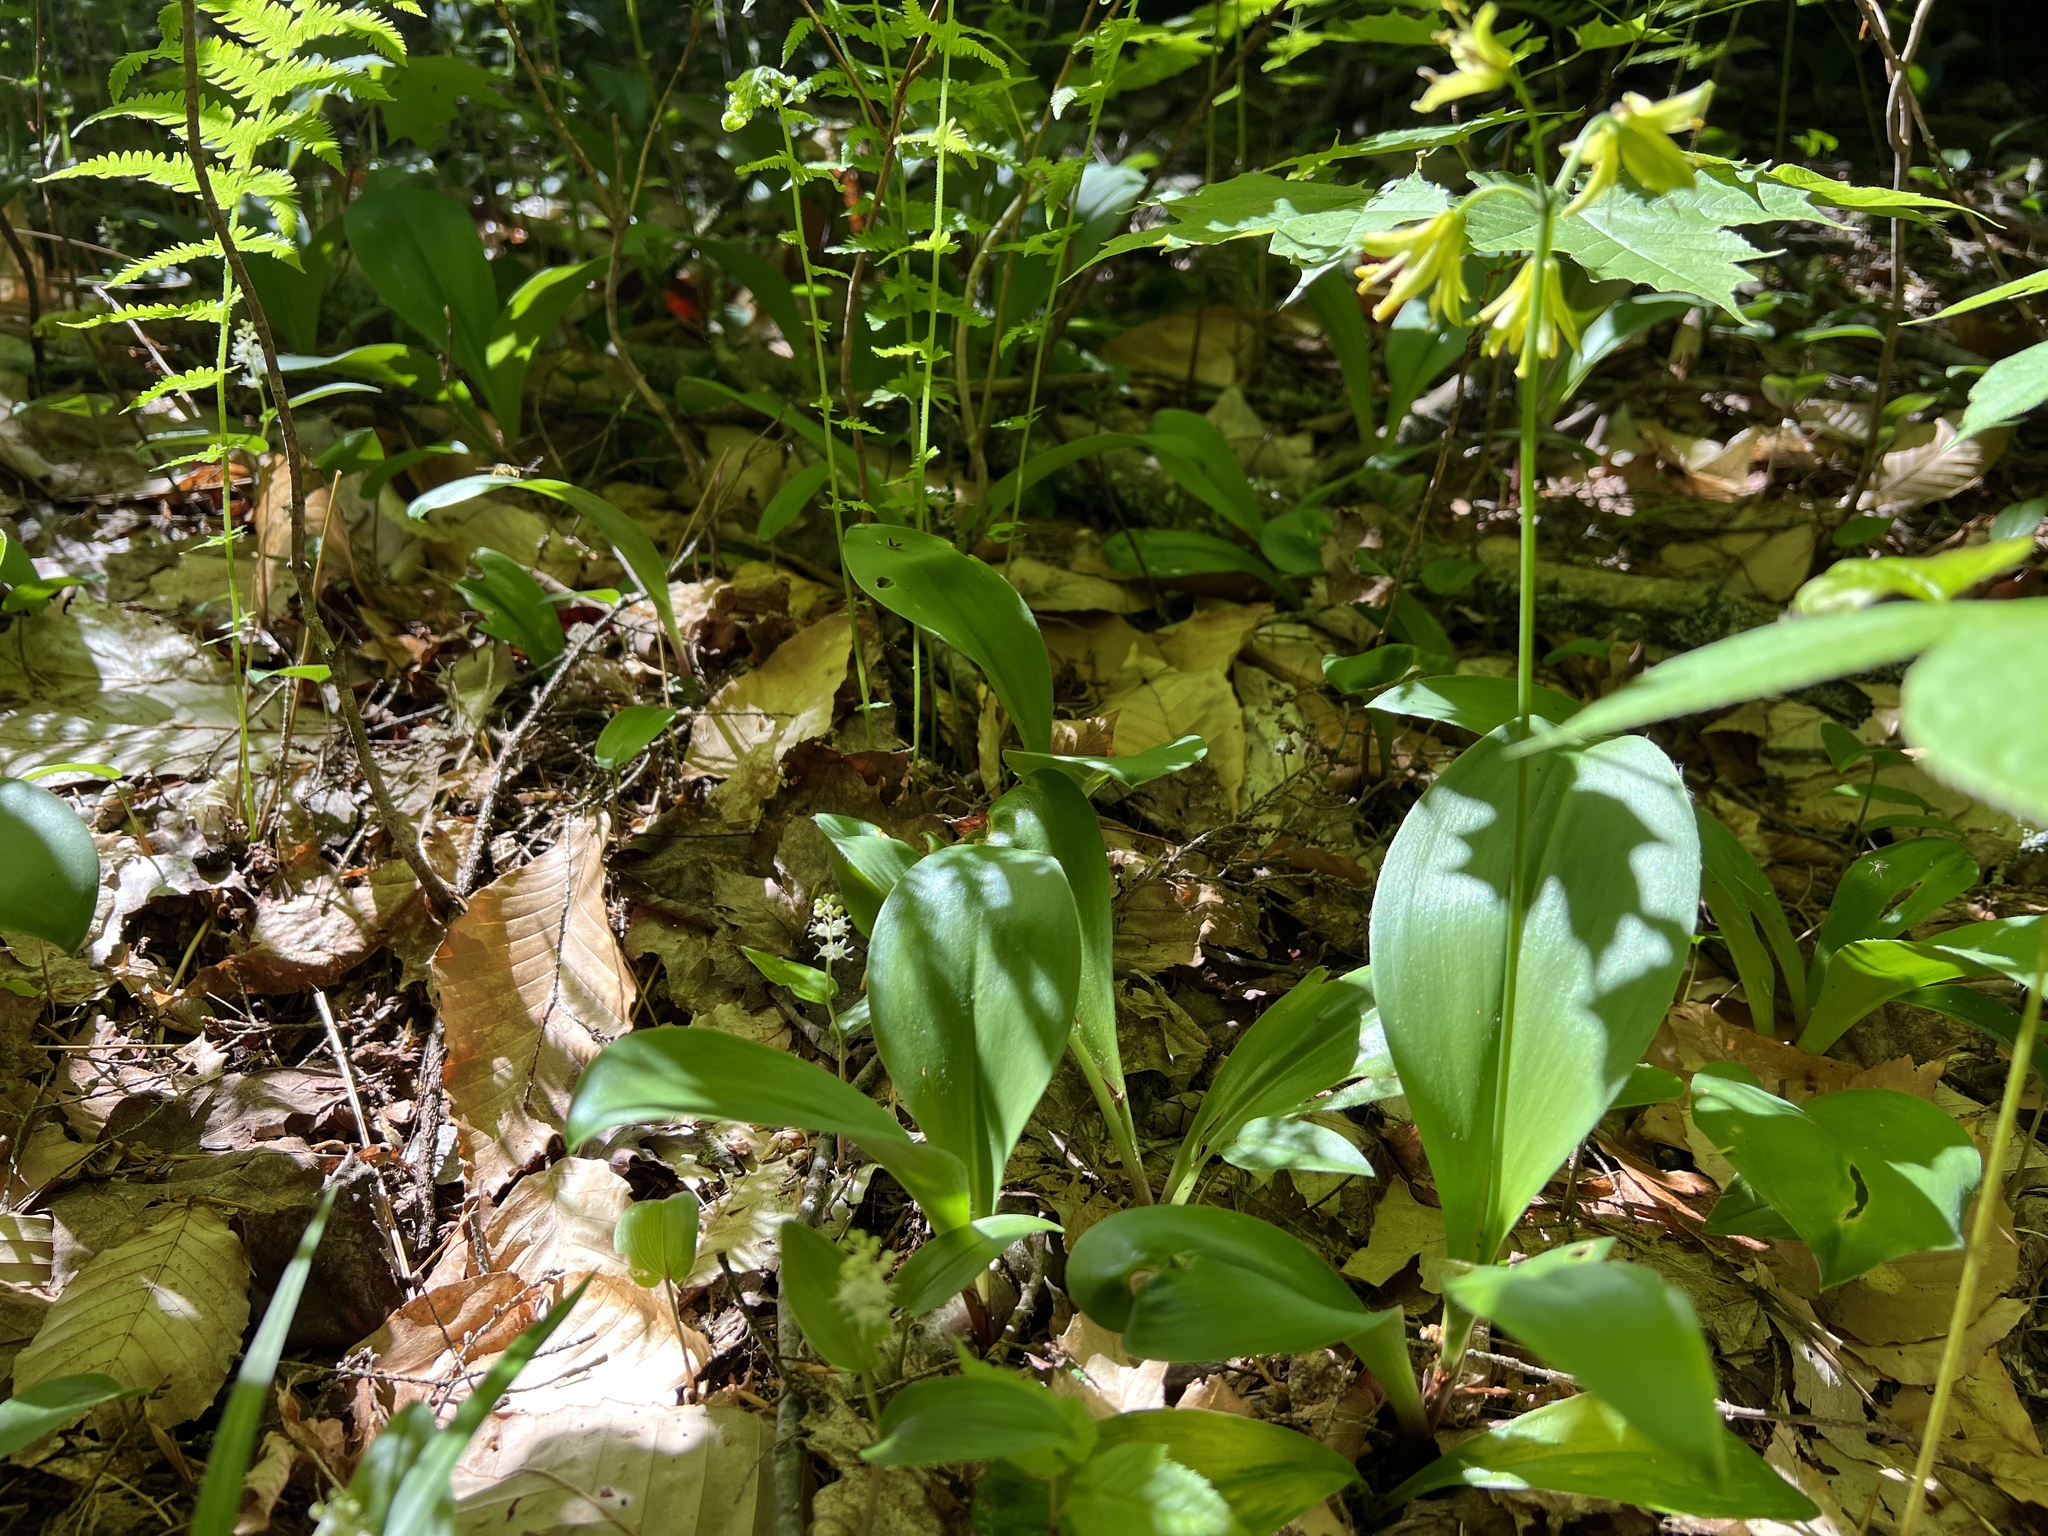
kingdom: Plantae
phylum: Tracheophyta
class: Liliopsida
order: Liliales
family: Liliaceae
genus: Clintonia
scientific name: Clintonia borealis
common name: Yellow clintonia
